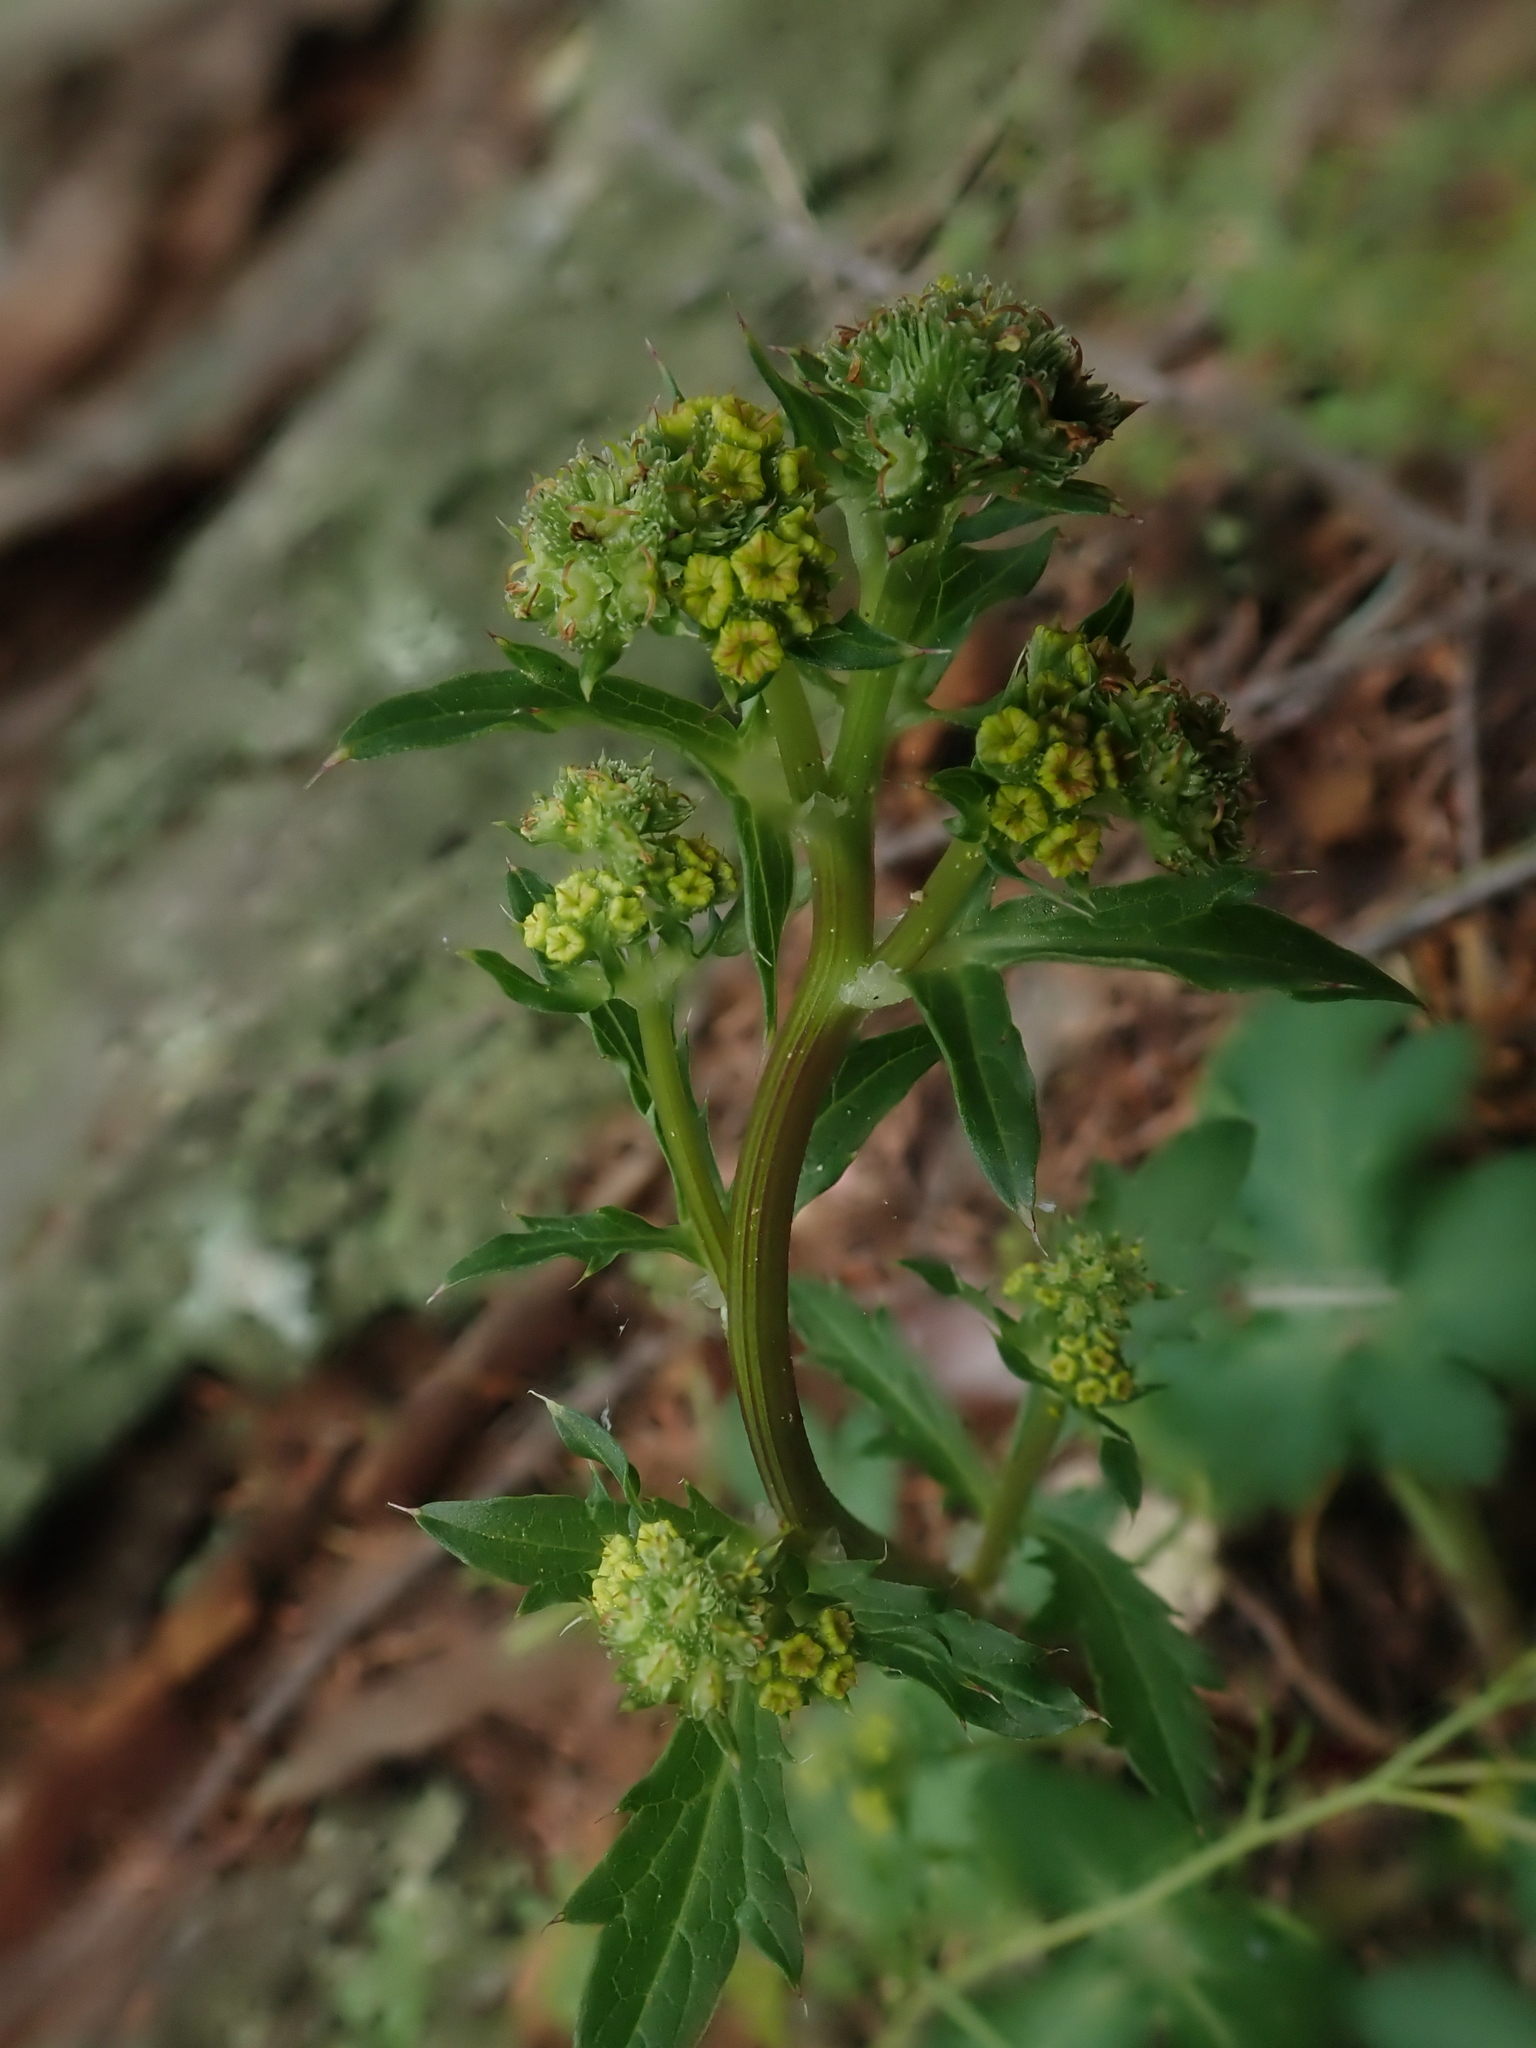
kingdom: Plantae
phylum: Tracheophyta
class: Magnoliopsida
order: Apiales
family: Apiaceae
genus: Sanicula
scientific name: Sanicula crassicaulis
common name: Western snakeroot
